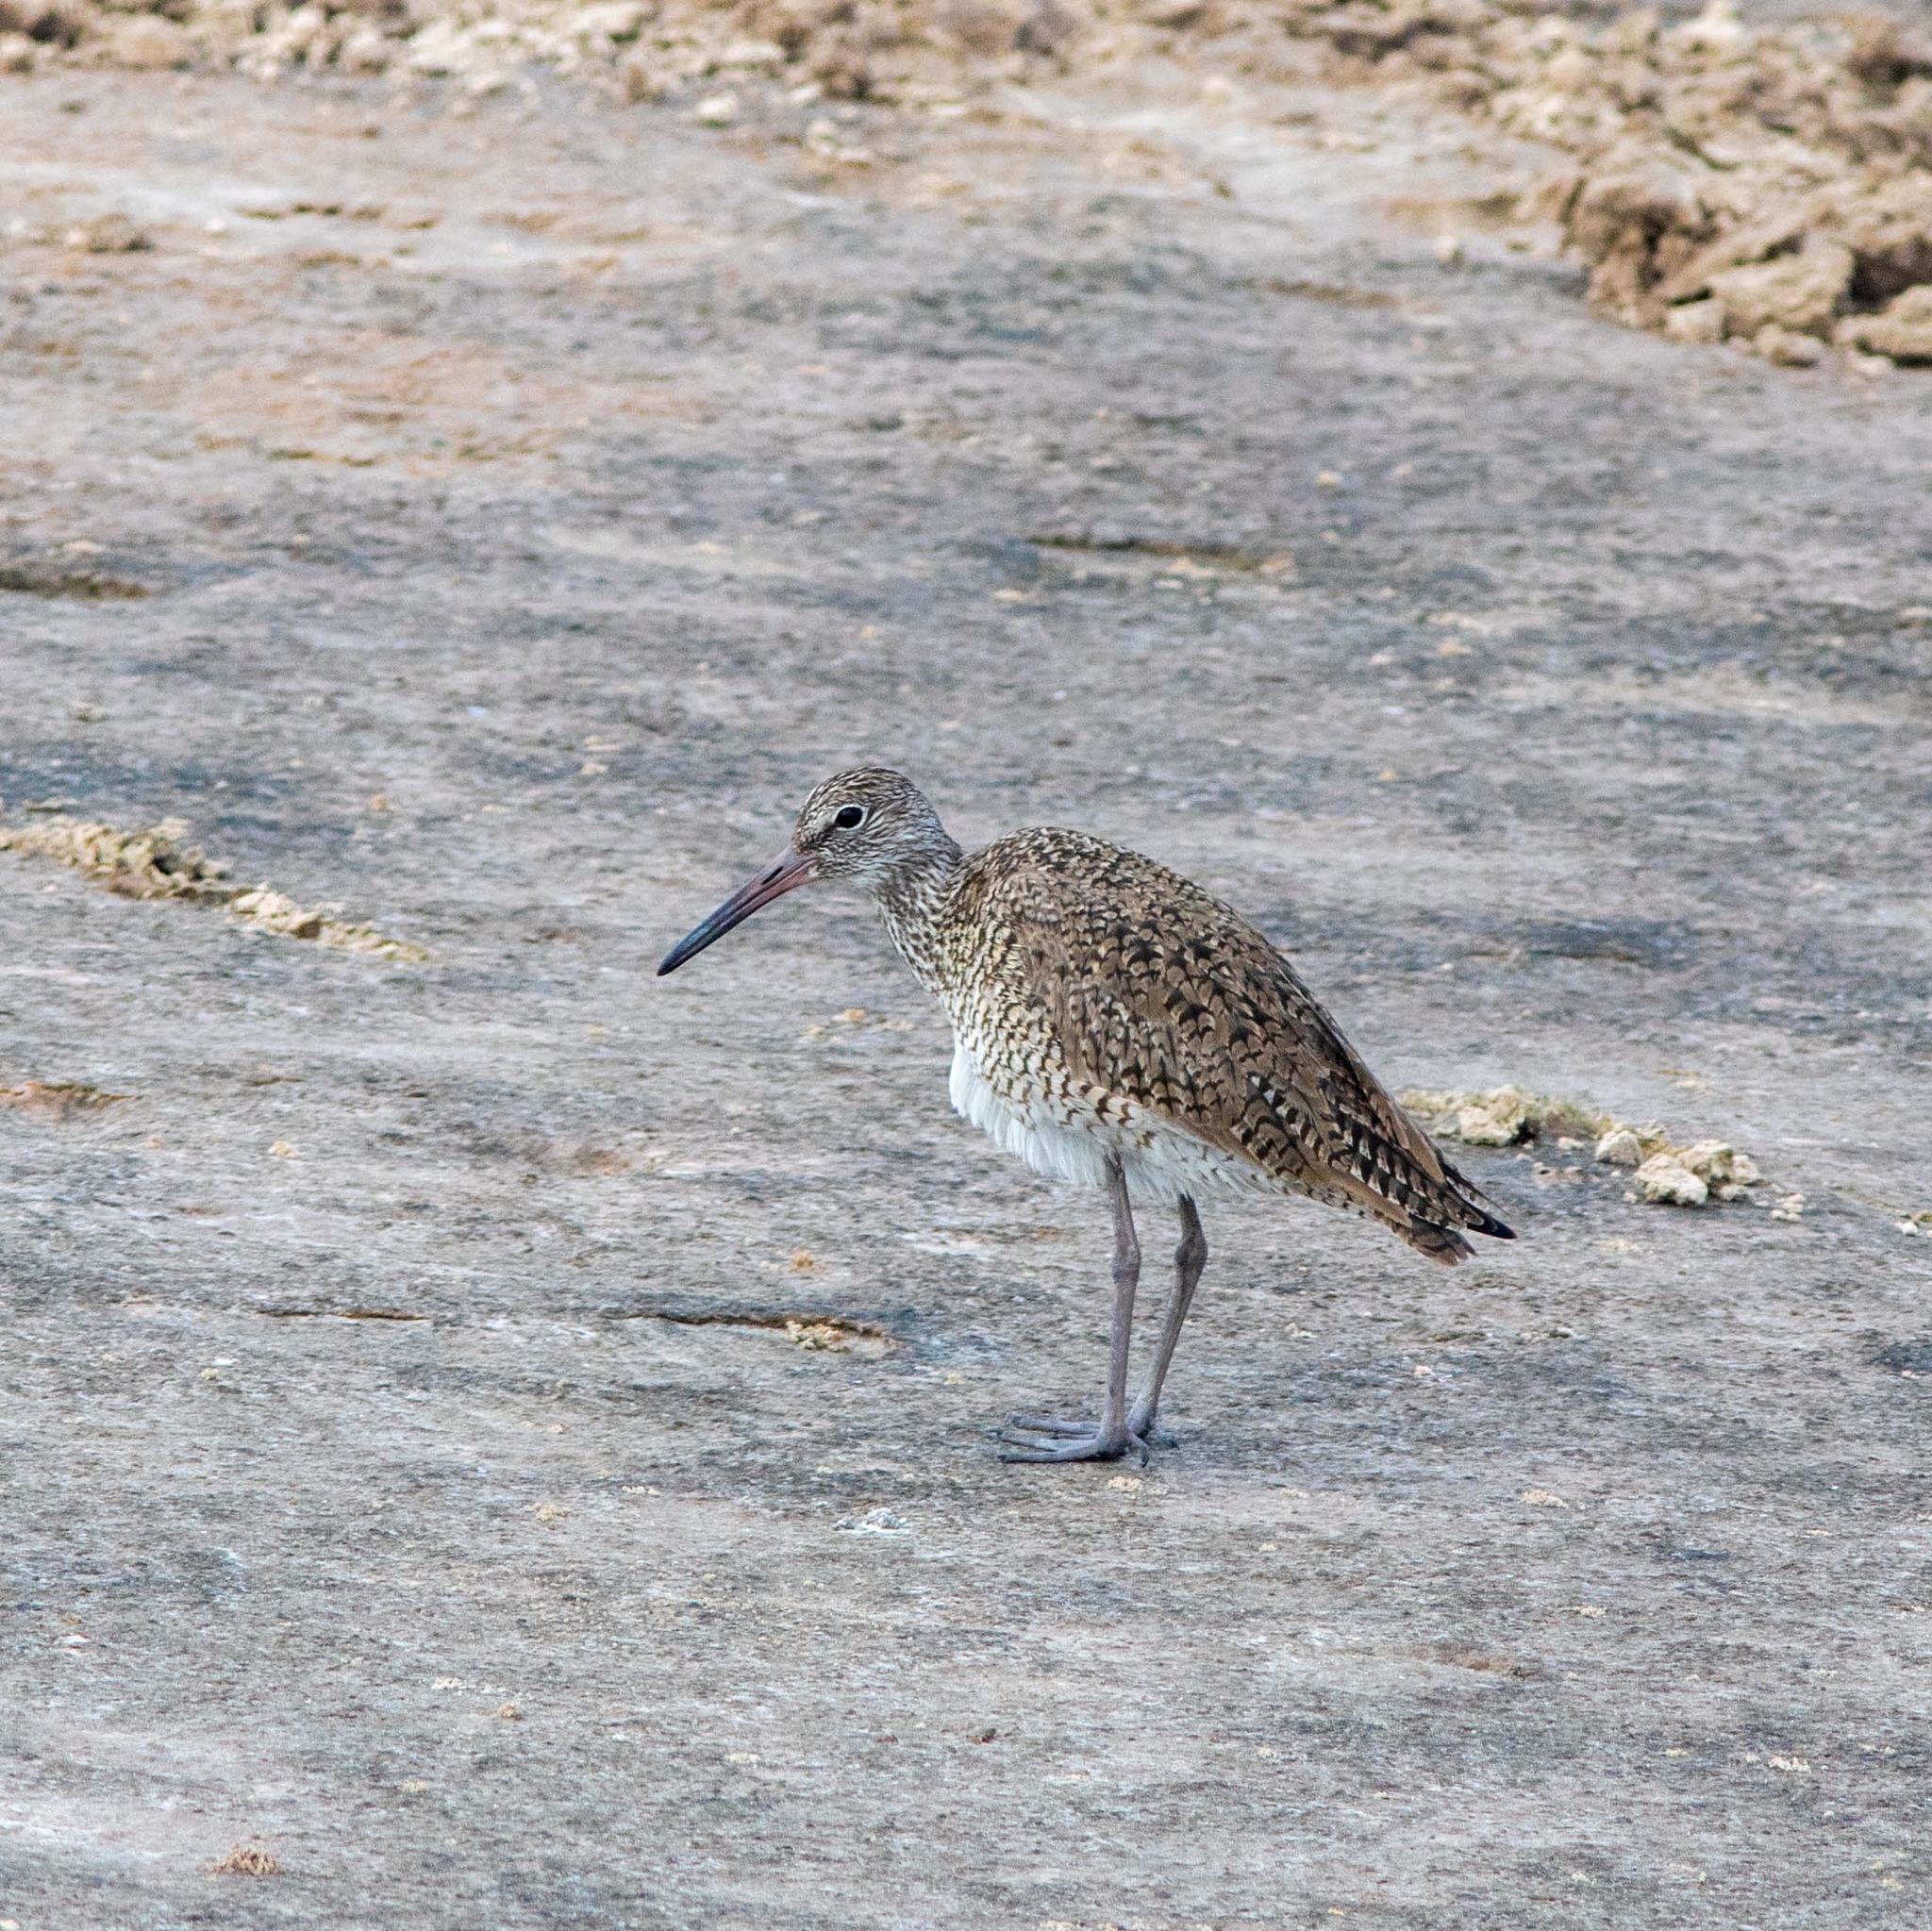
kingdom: Animalia
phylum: Chordata
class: Aves
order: Charadriiformes
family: Scolopacidae
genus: Tringa
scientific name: Tringa semipalmata
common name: Willet
